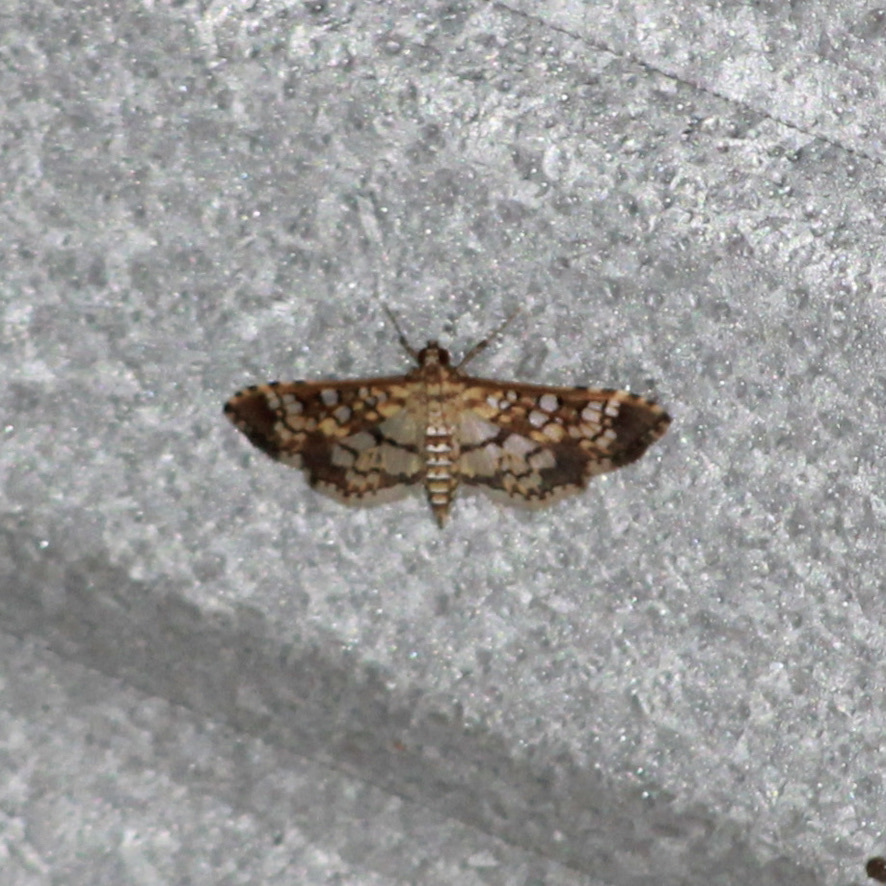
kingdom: Animalia
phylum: Arthropoda
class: Insecta
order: Lepidoptera
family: Crambidae
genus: Samea
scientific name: Samea ecclesialis
